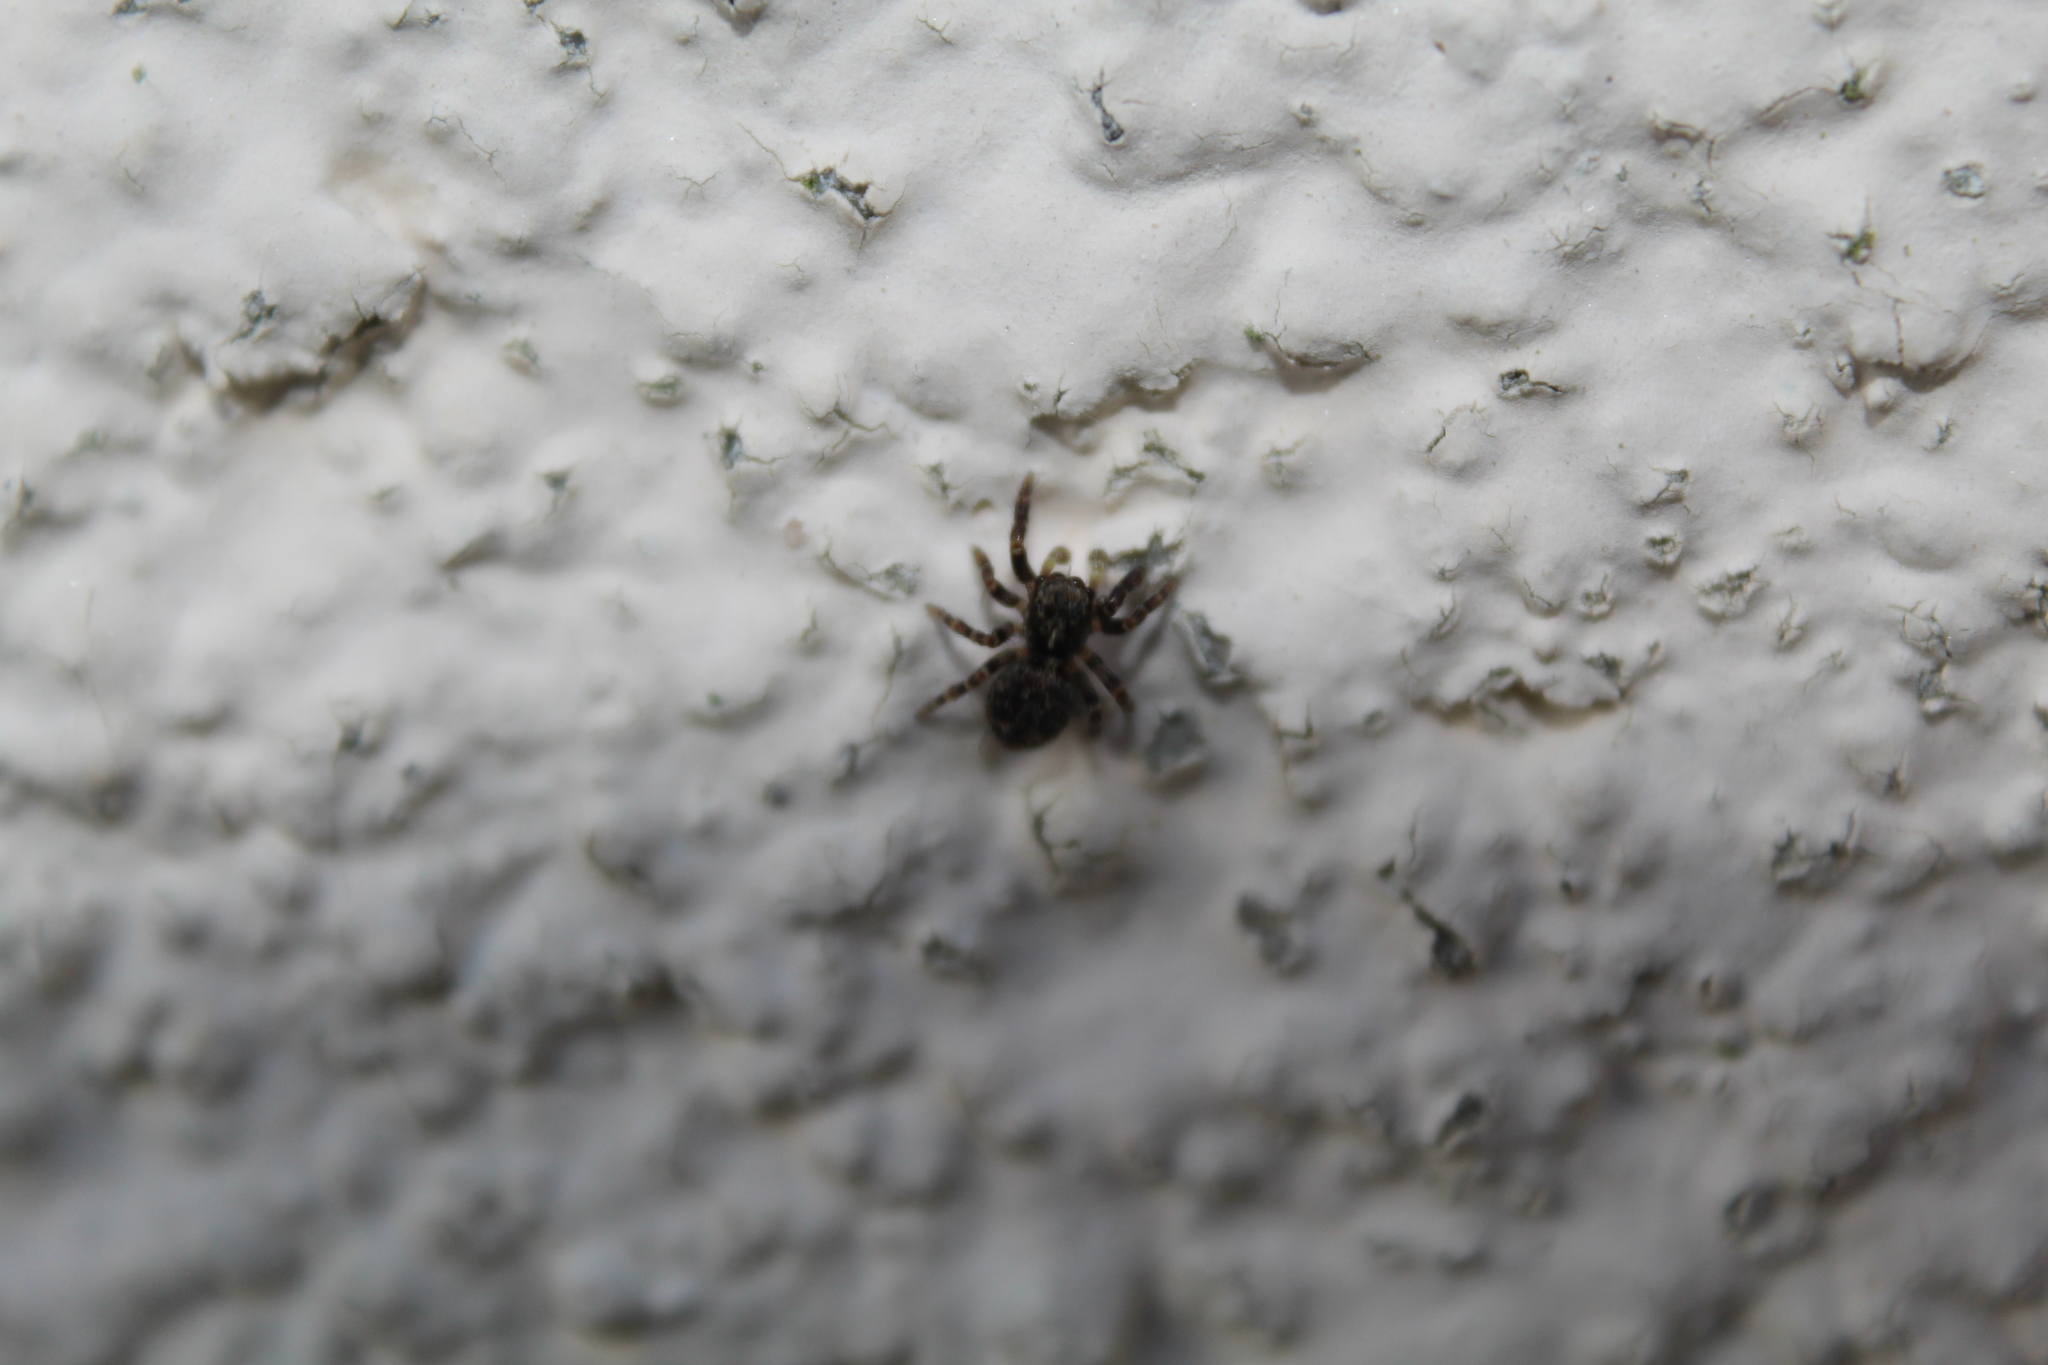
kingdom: Animalia
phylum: Arthropoda
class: Arachnida
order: Araneae
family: Salticidae
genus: Pseudeuophrys
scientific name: Pseudeuophrys erratica
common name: Jumping spider
